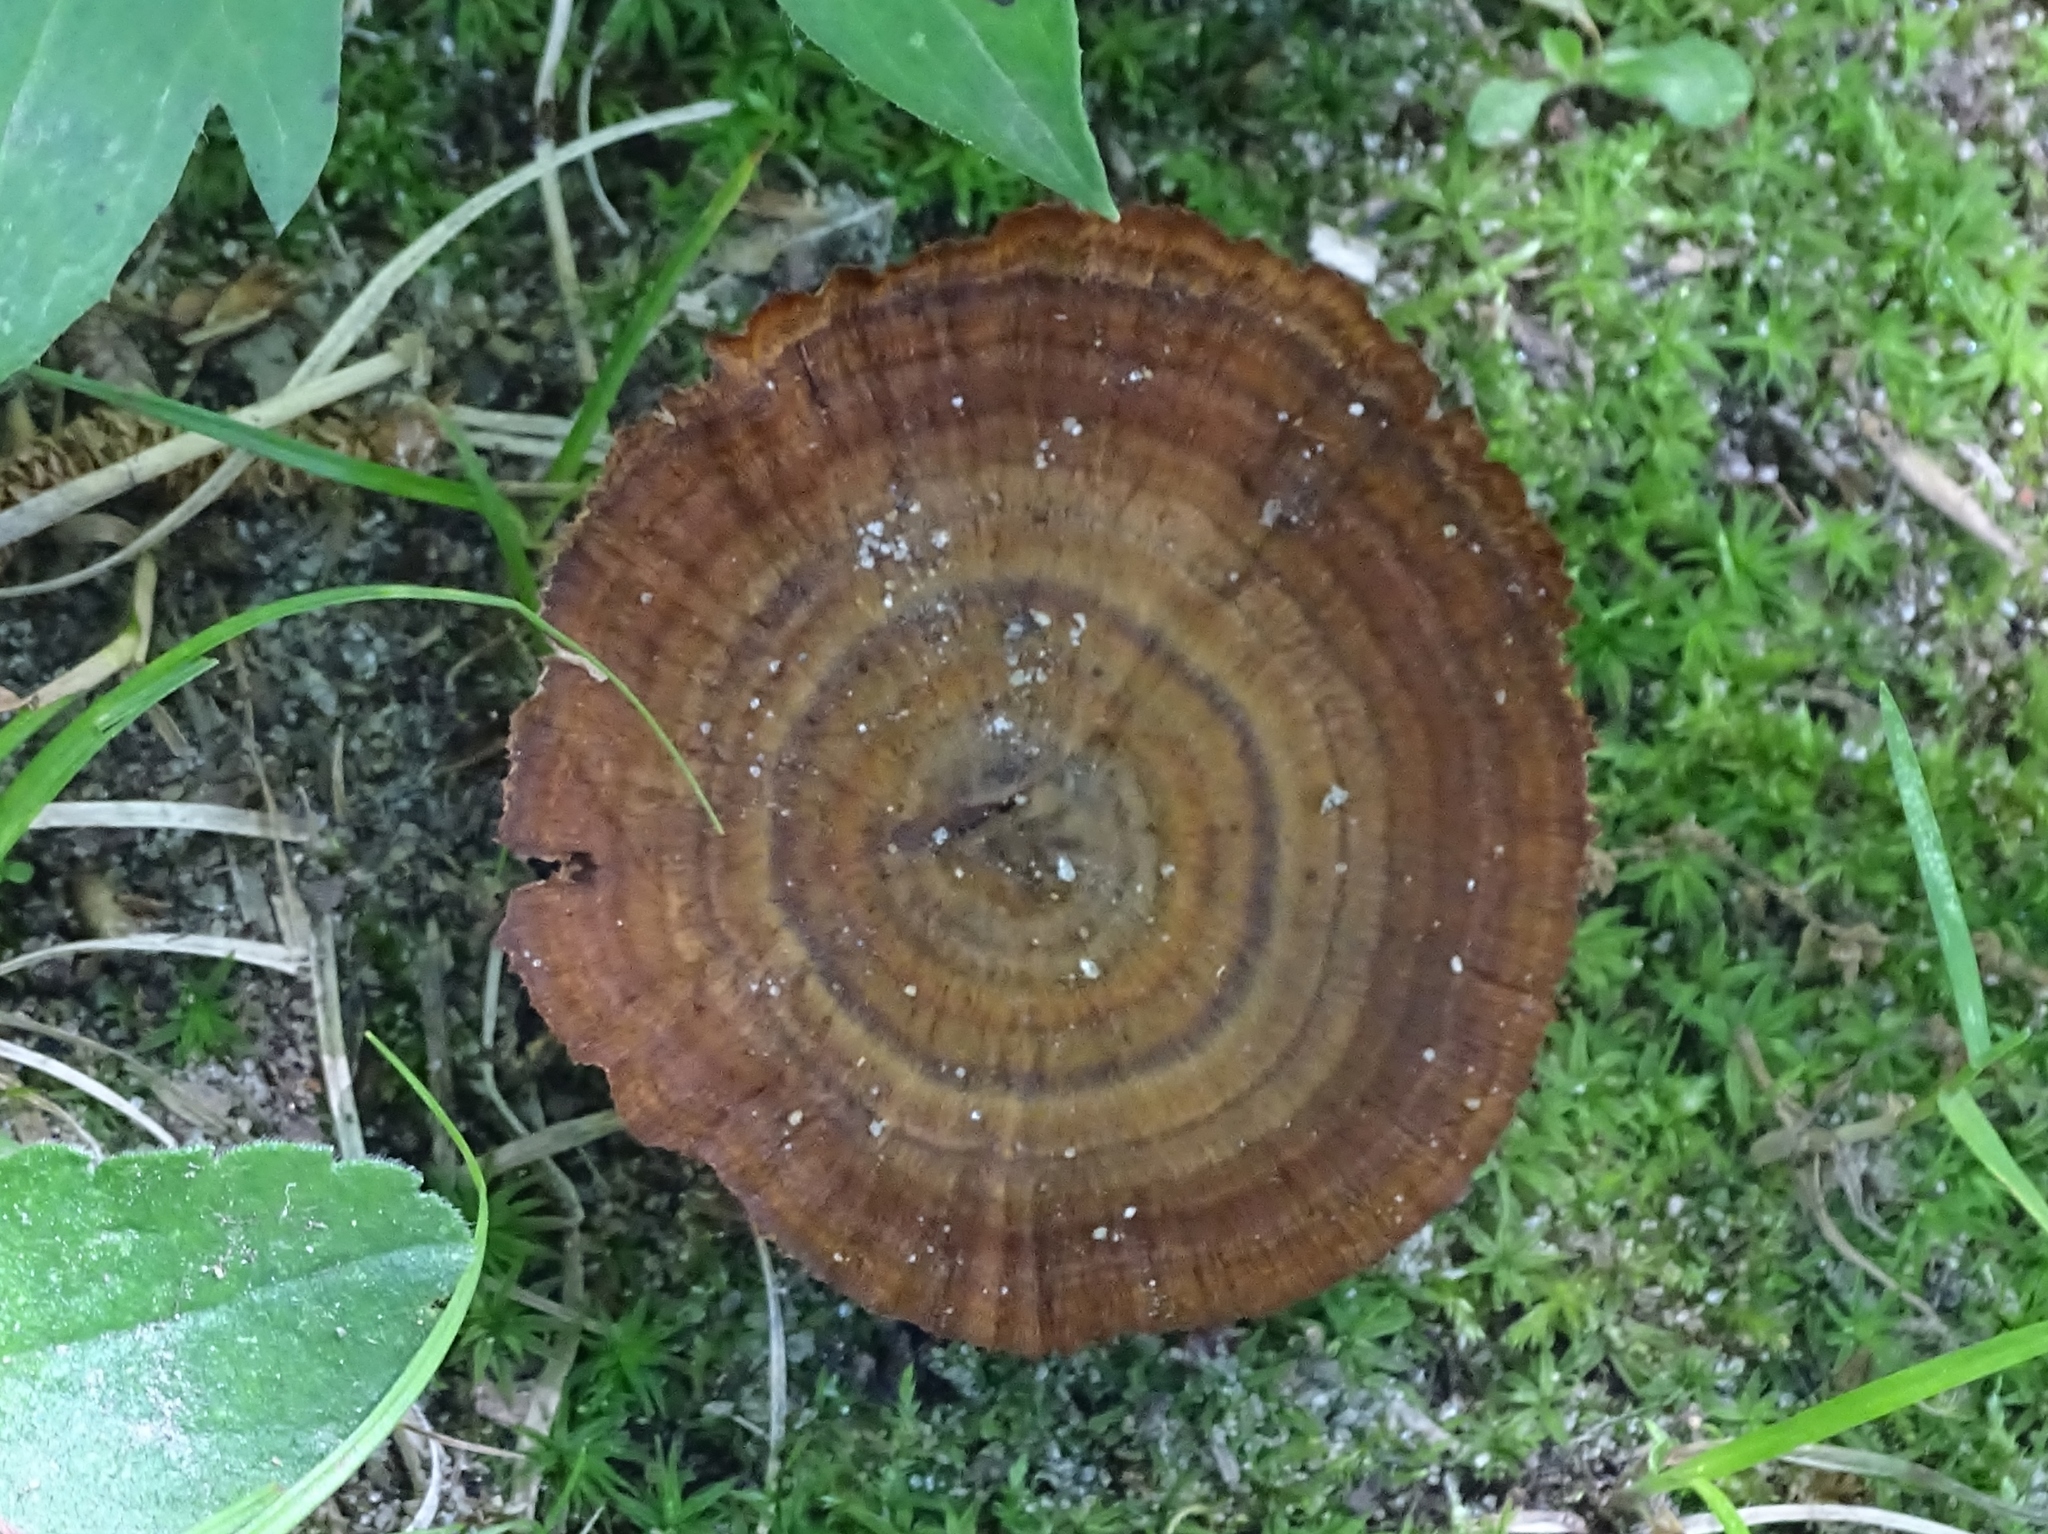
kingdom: Fungi
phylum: Basidiomycota
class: Agaricomycetes
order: Hymenochaetales
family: Hymenochaetaceae
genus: Coltricia
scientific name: Coltricia cinnamomea
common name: Shiny cinnamon polypore
